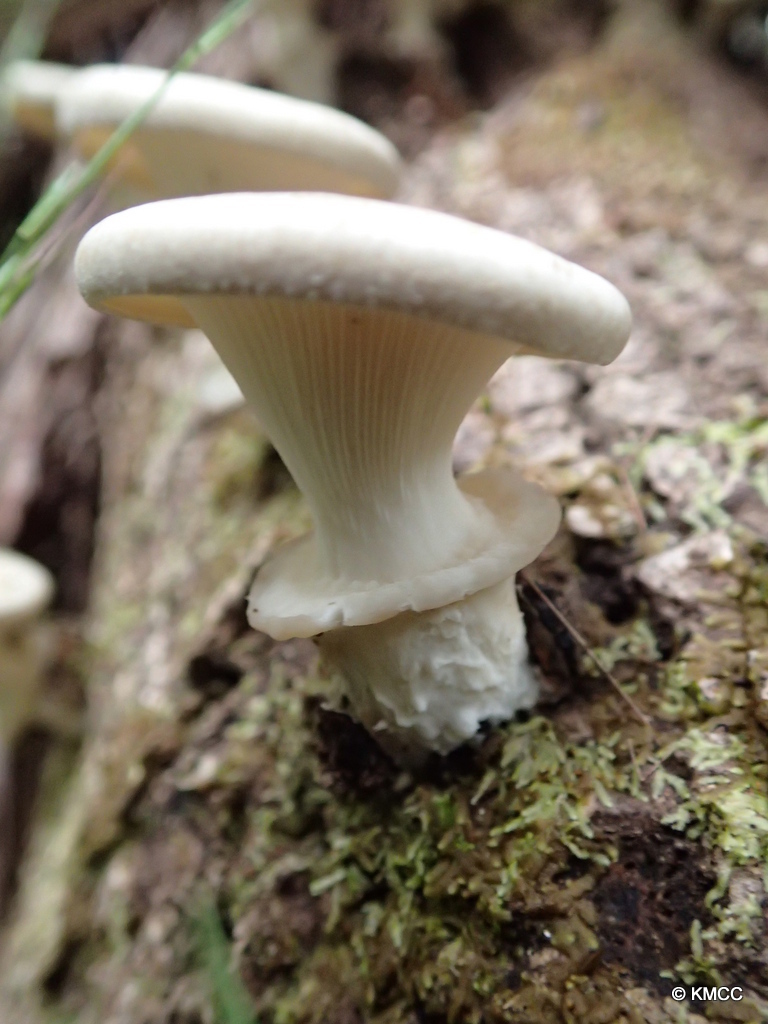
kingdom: Fungi
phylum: Basidiomycota
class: Agaricomycetes
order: Polyporales
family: Polyporaceae
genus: Lentinus
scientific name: Lentinus sajor-caju
